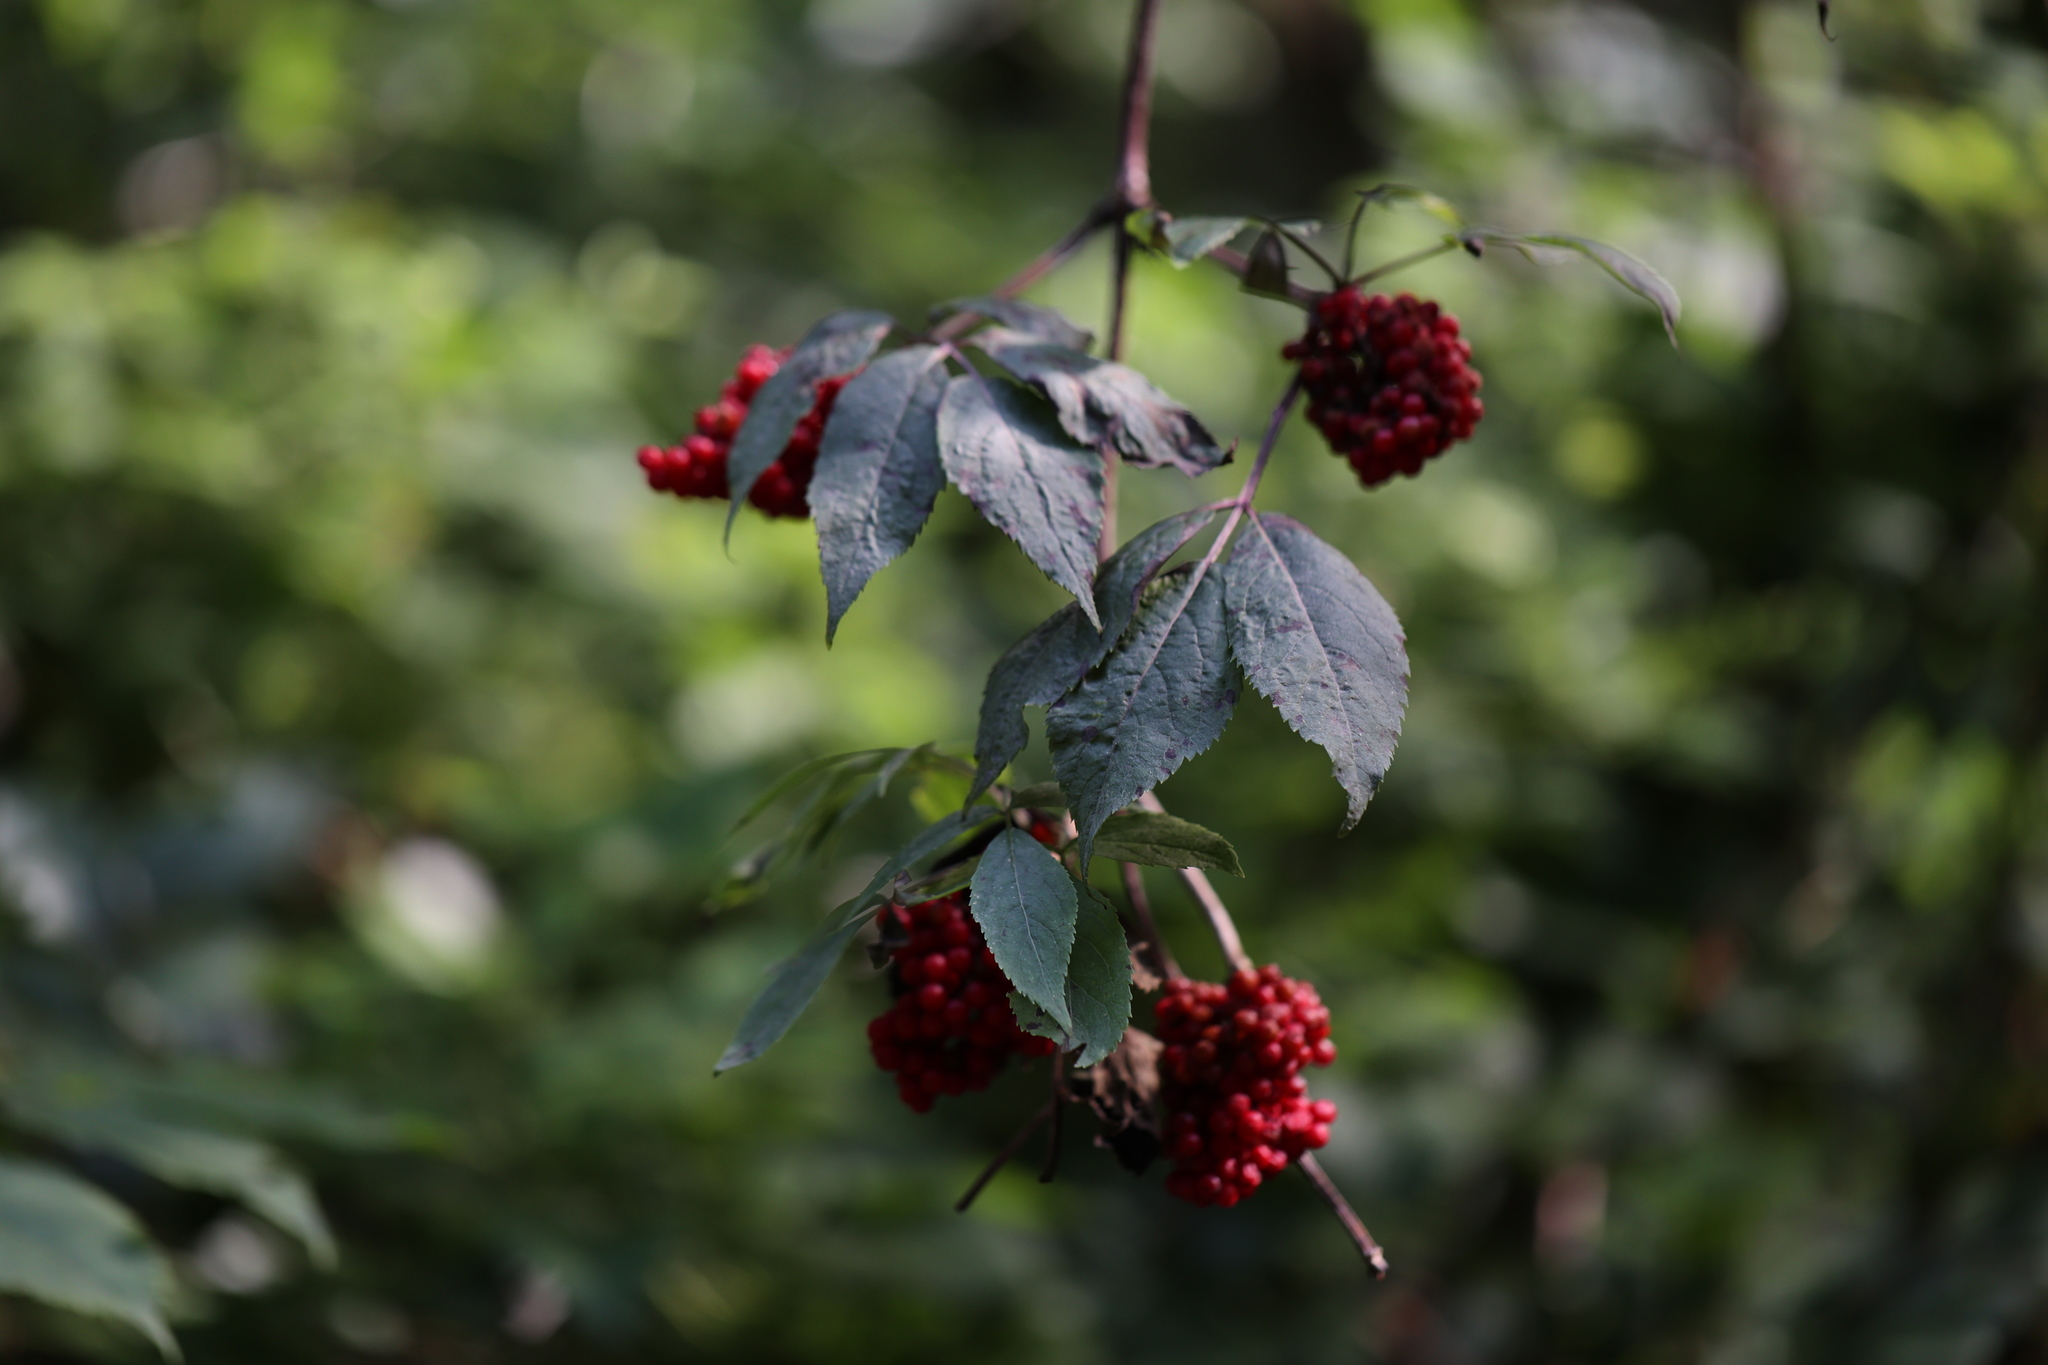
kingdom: Plantae
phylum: Tracheophyta
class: Magnoliopsida
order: Dipsacales
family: Viburnaceae
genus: Sambucus
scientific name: Sambucus racemosa
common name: Red-berried elder
